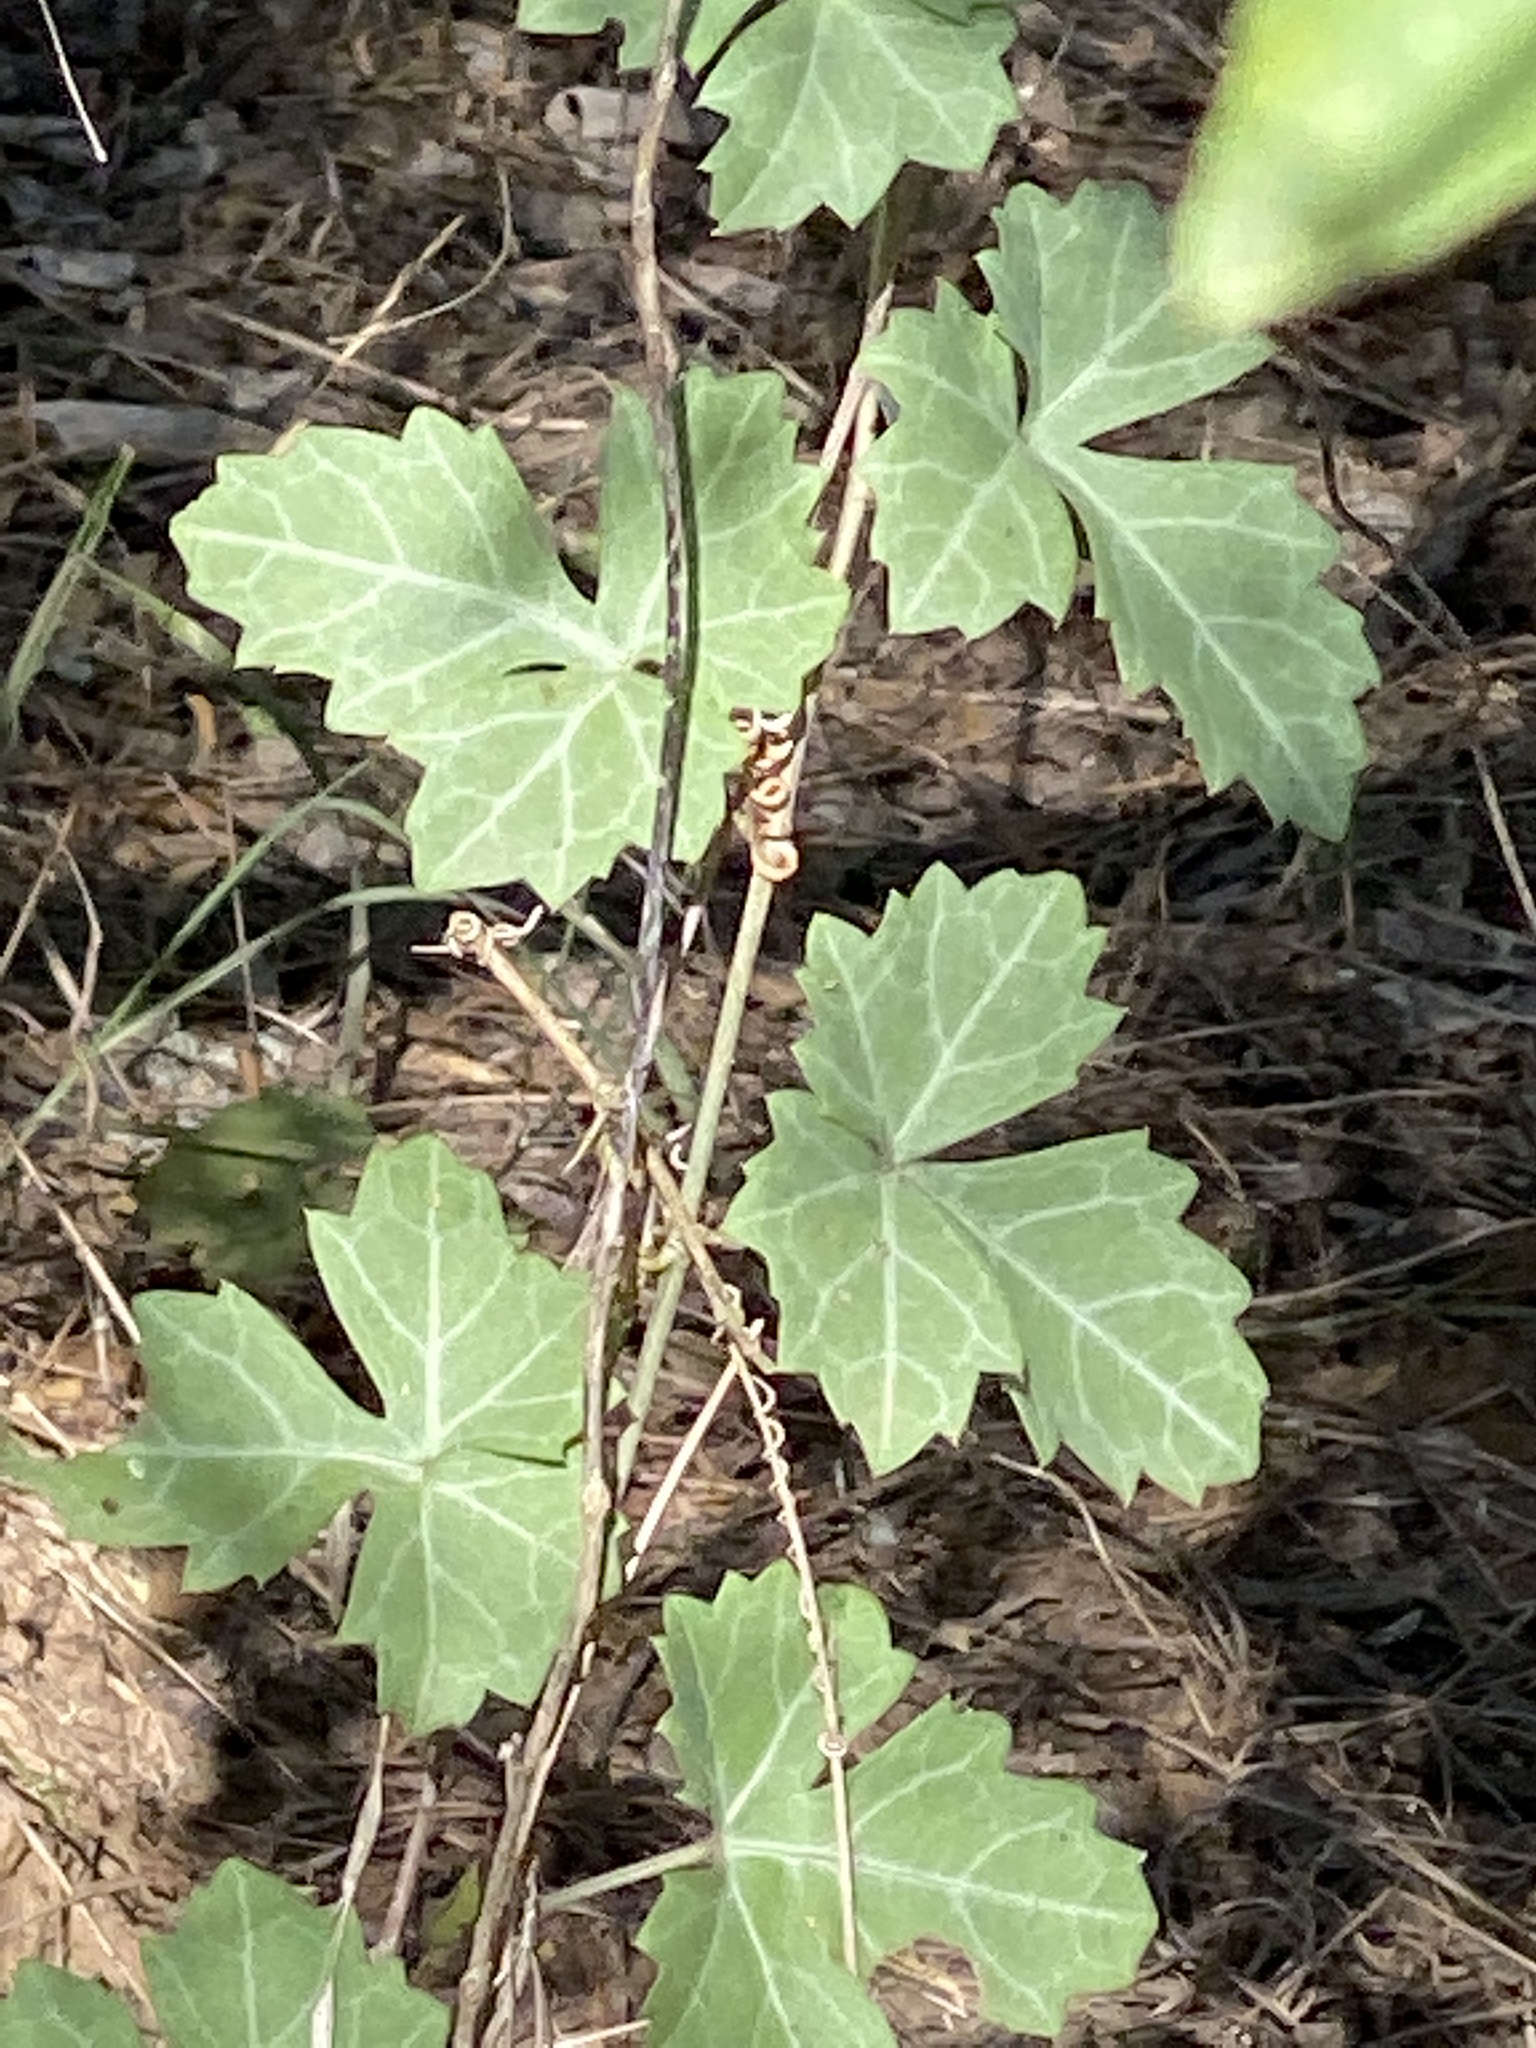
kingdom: Plantae
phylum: Tracheophyta
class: Magnoliopsida
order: Vitales
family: Vitaceae
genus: Cissus
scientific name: Cissus trifoliata
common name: Vine-sorrel
